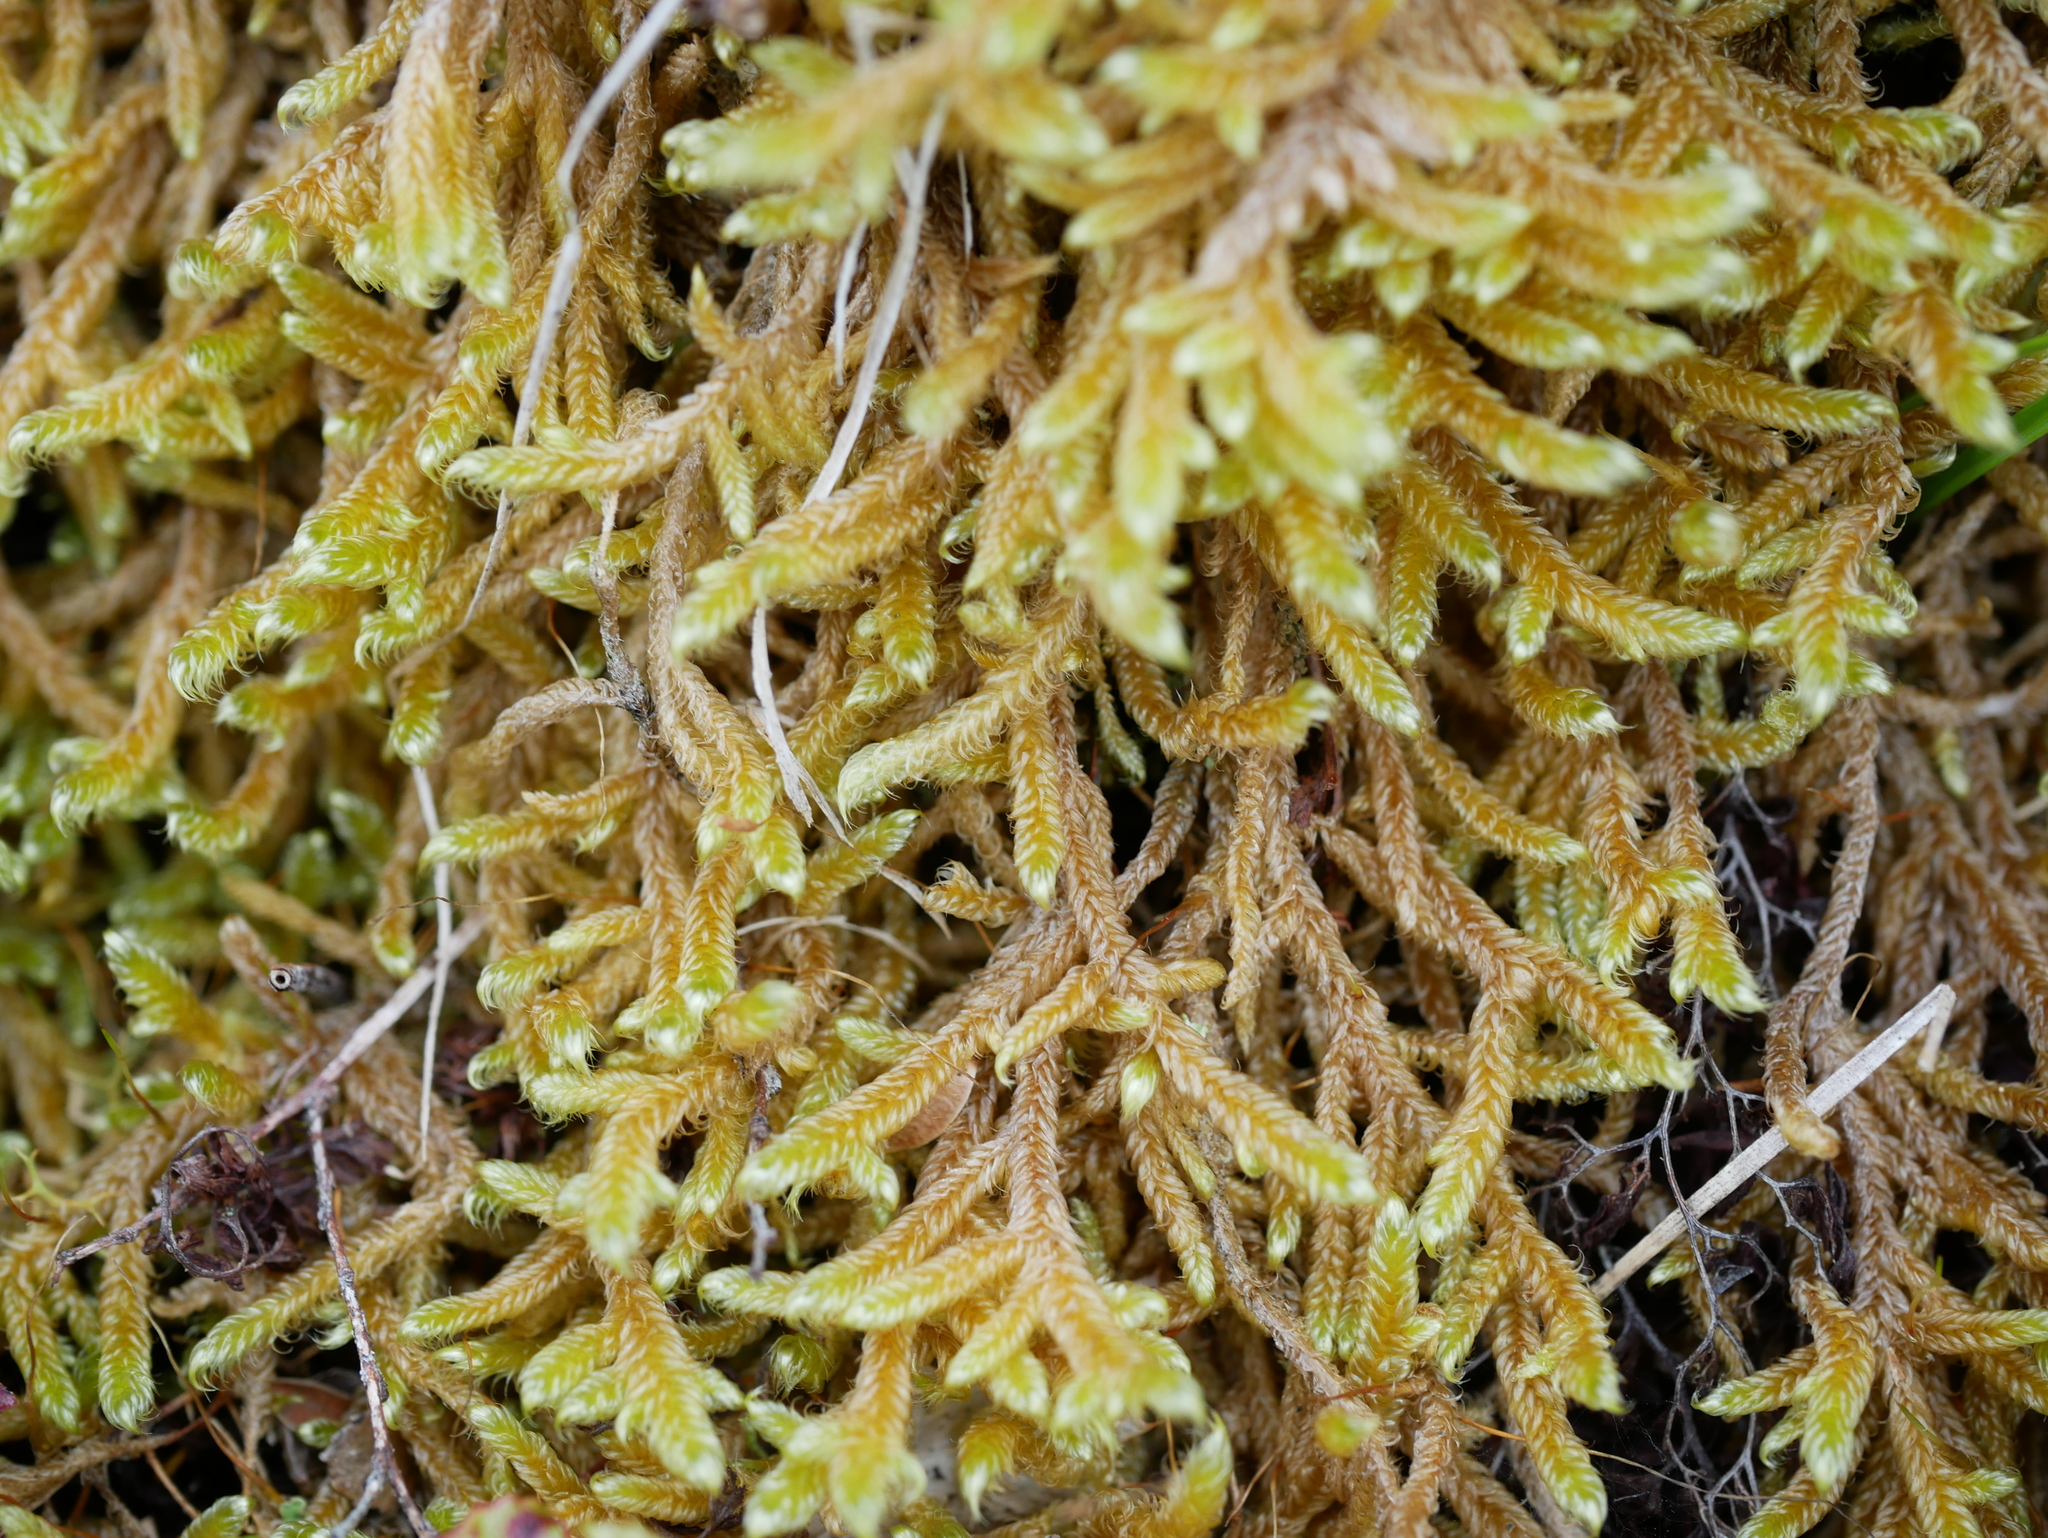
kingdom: Plantae
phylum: Bryophyta
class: Bryopsida
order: Hypnales
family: Hypnaceae
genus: Hypnum
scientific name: Hypnum cupressiforme
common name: Cypress-leaved plait-moss
